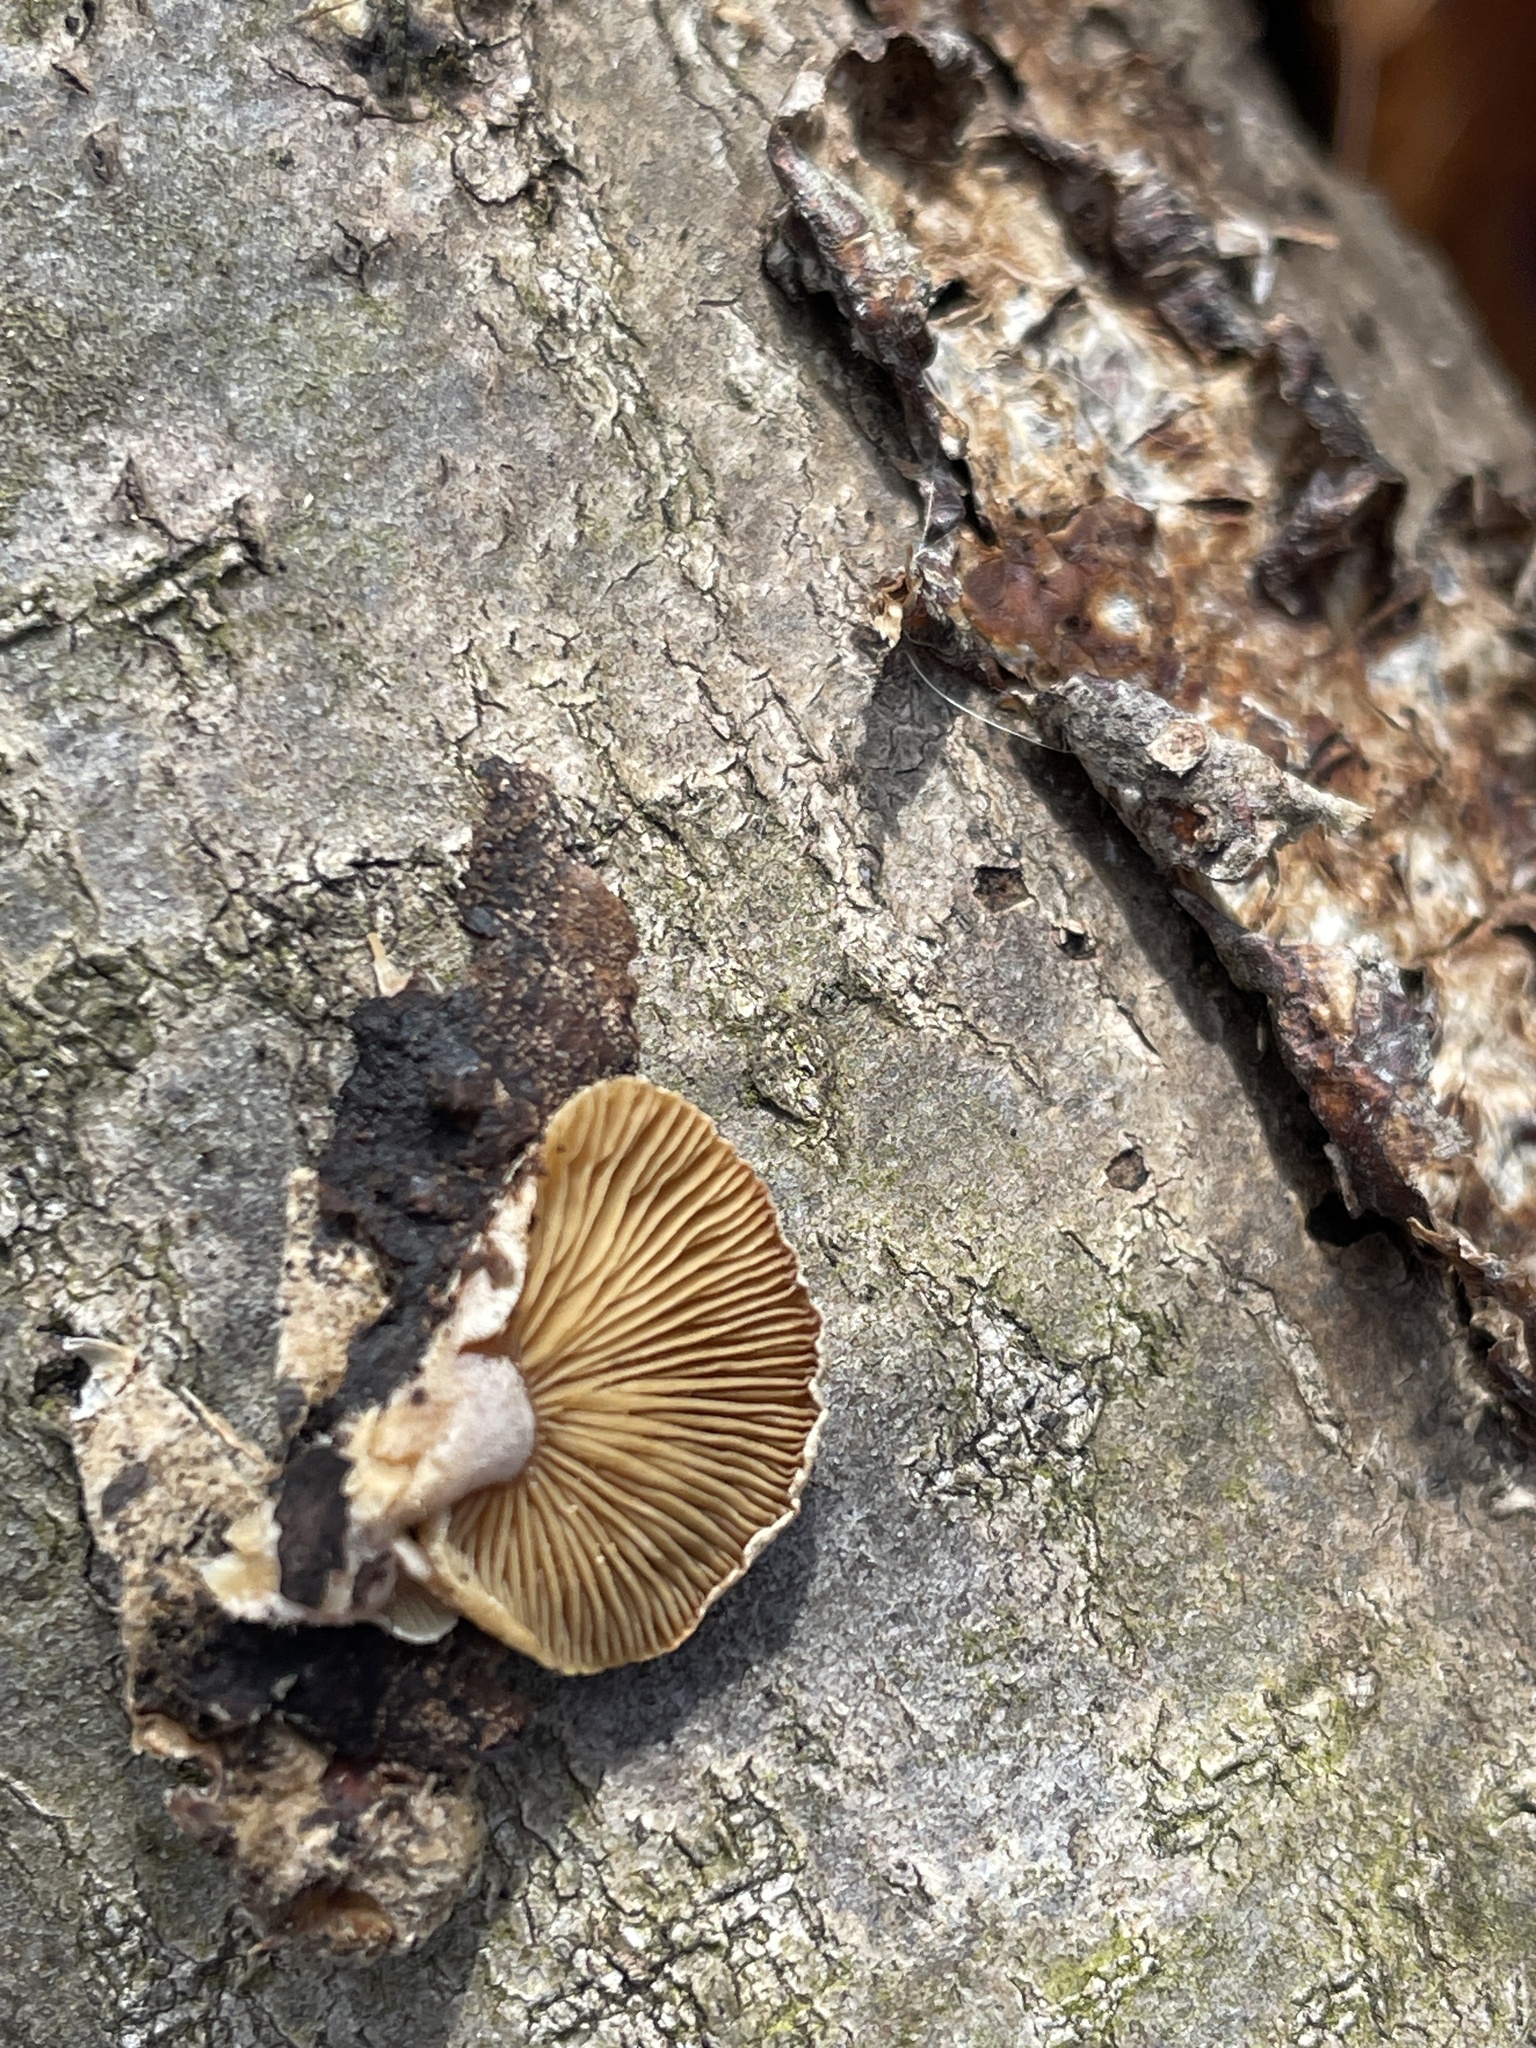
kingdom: Fungi
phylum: Basidiomycota
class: Agaricomycetes
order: Agaricales
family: Mycenaceae
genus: Panellus
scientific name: Panellus stipticus
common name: Bitter oysterling
